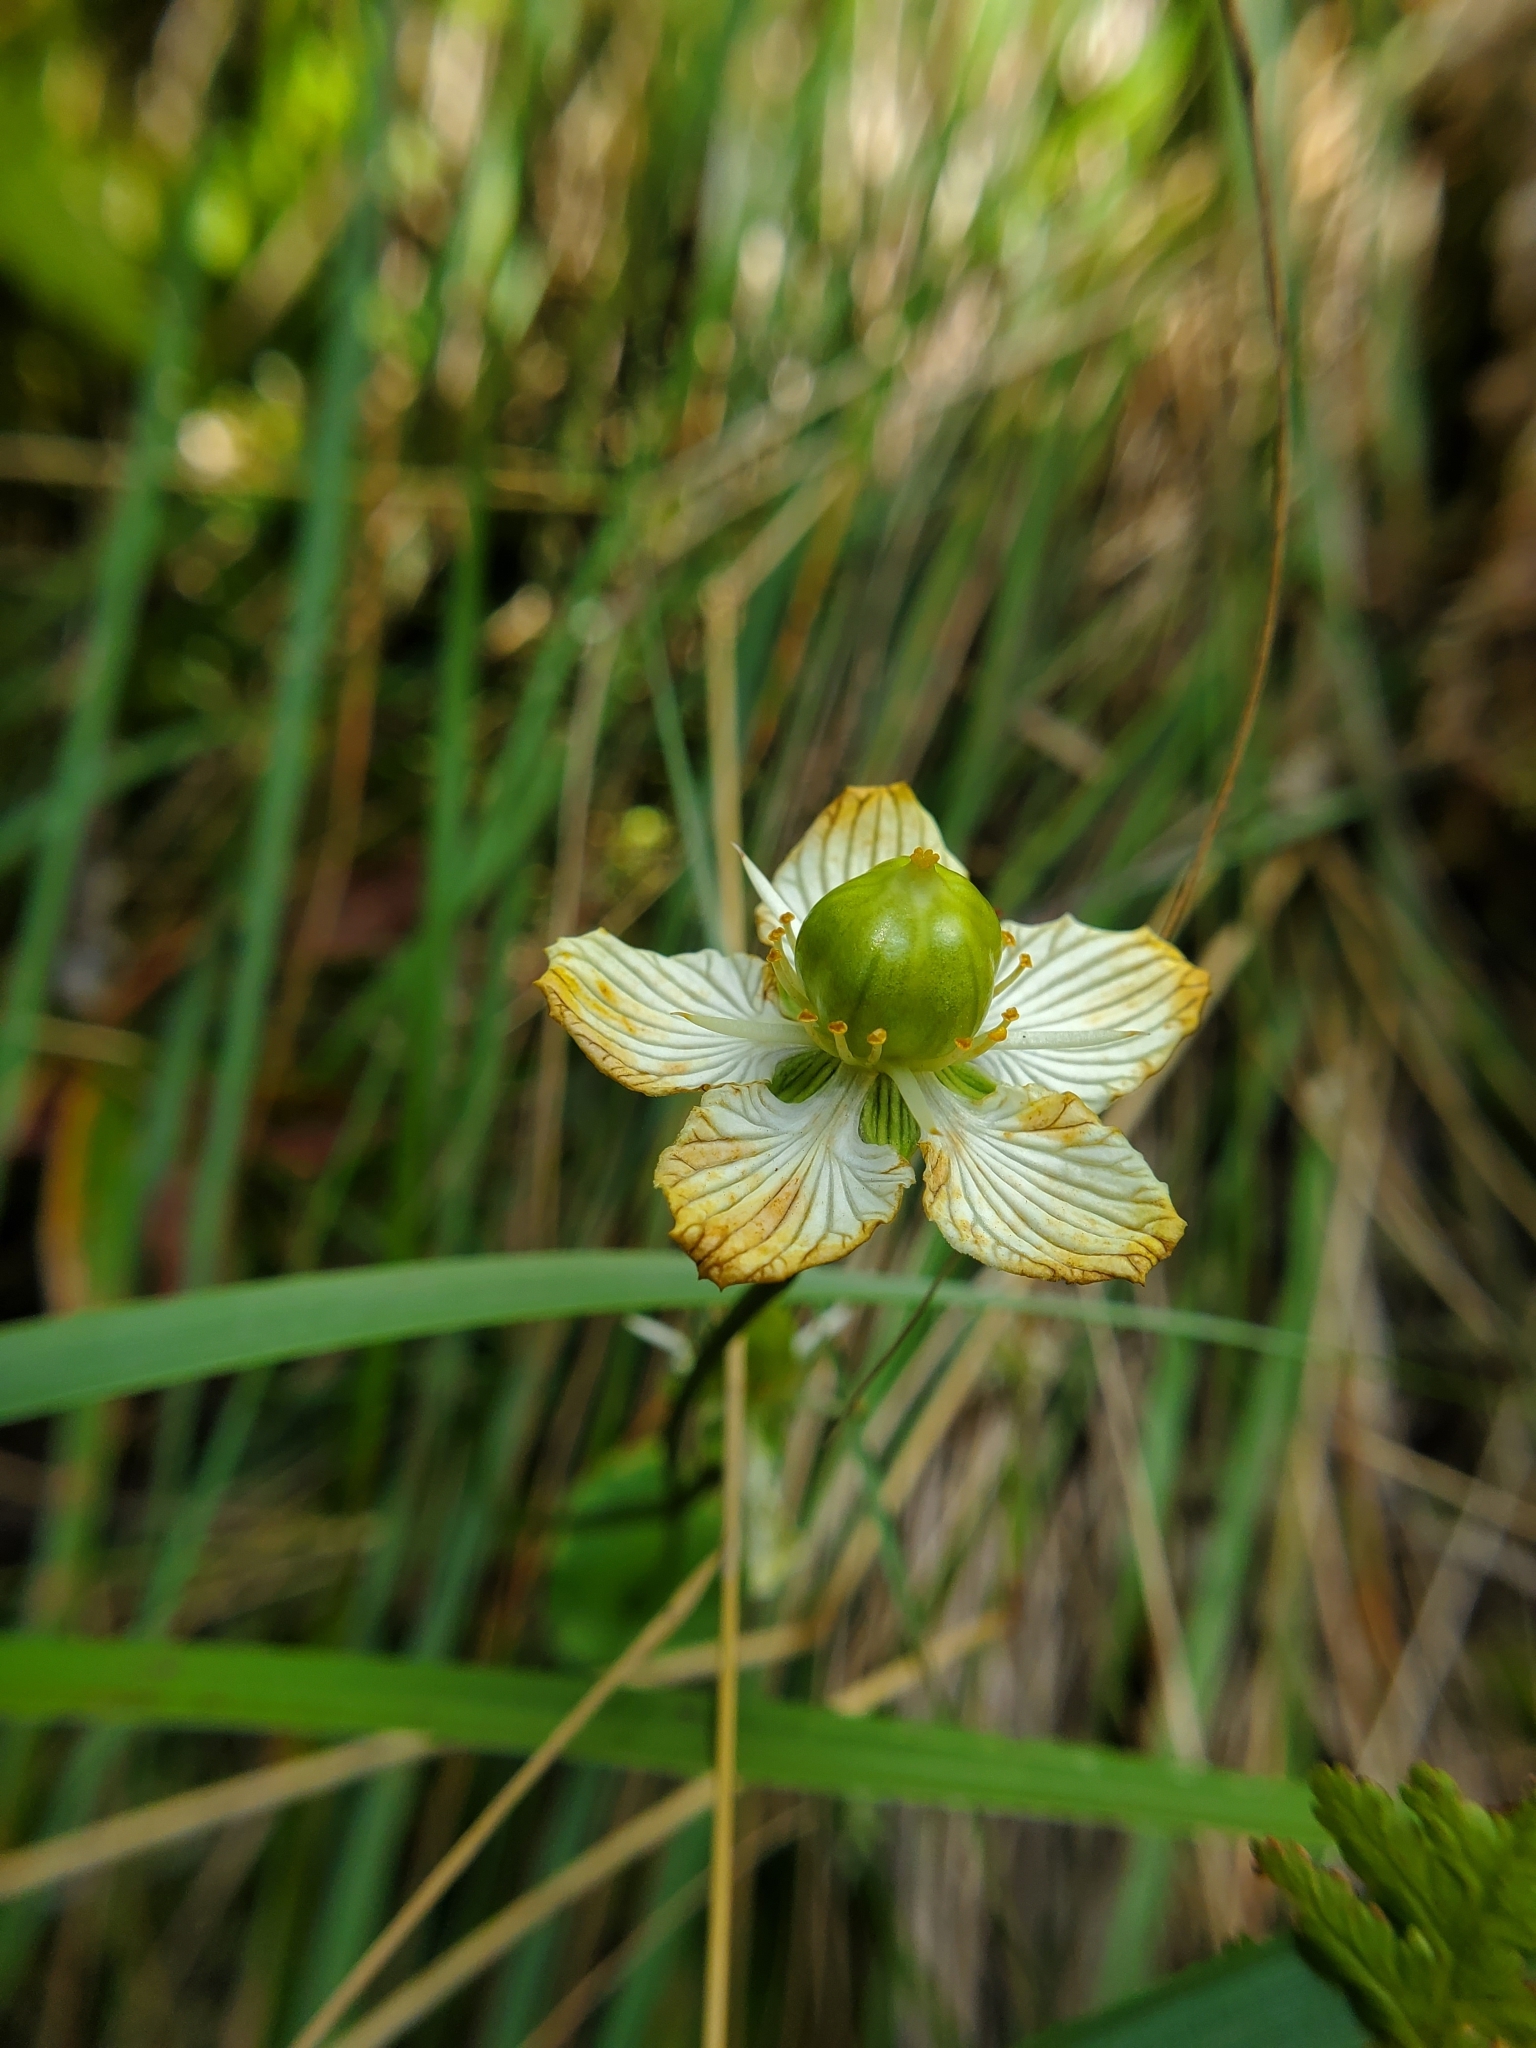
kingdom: Plantae
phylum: Tracheophyta
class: Magnoliopsida
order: Celastrales
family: Parnassiaceae
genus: Parnassia
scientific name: Parnassia asarifolia
